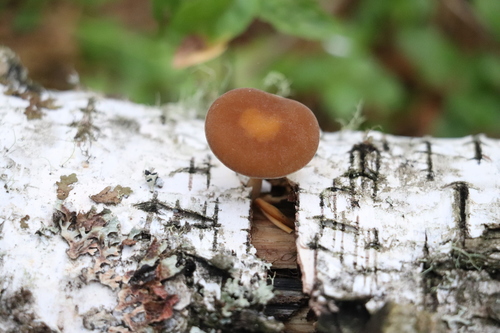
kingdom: Fungi
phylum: Basidiomycota
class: Agaricomycetes
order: Agaricales
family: Crepidotaceae
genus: Simocybe
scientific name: Simocybe sumptuosa
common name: Velvet twiglet
